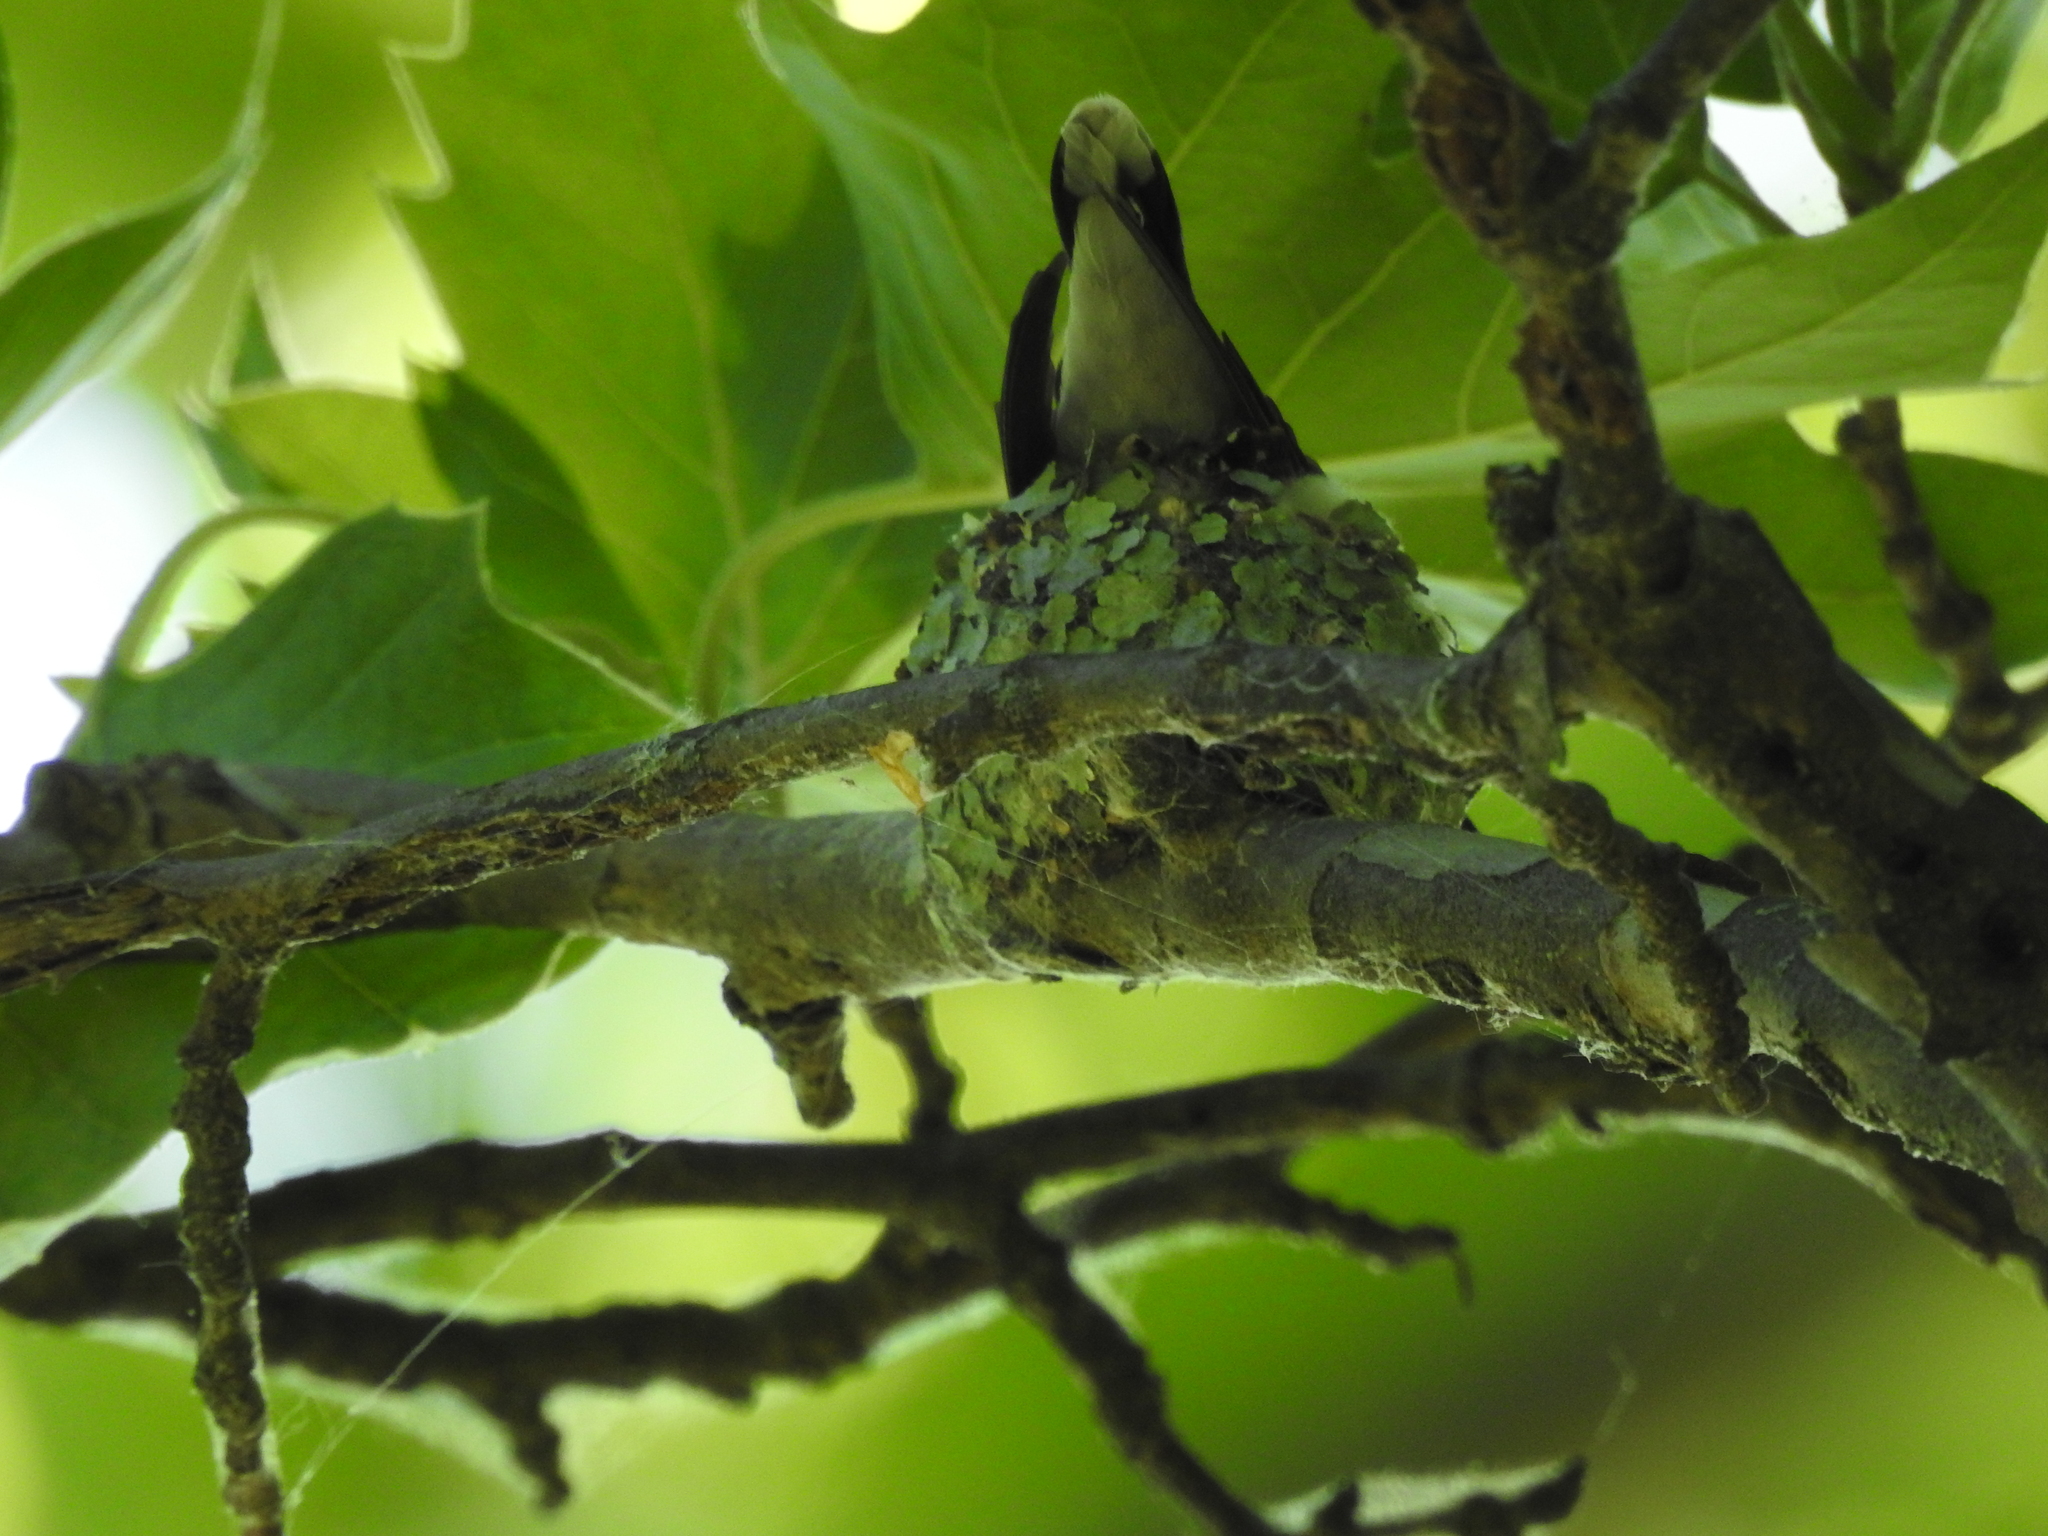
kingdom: Animalia
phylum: Chordata
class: Aves
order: Apodiformes
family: Trochilidae
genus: Archilochus
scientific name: Archilochus colubris
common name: Ruby-throated hummingbird
